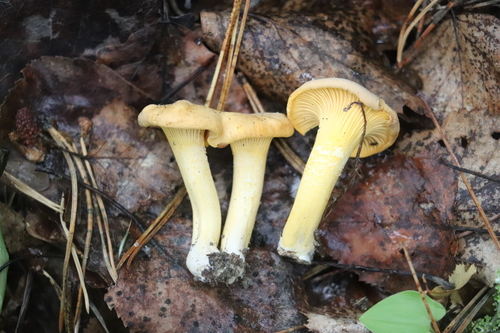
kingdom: Fungi
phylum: Basidiomycota
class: Agaricomycetes
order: Cantharellales
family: Hydnaceae
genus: Cantharellus
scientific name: Cantharellus cibarius
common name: Chanterelle
